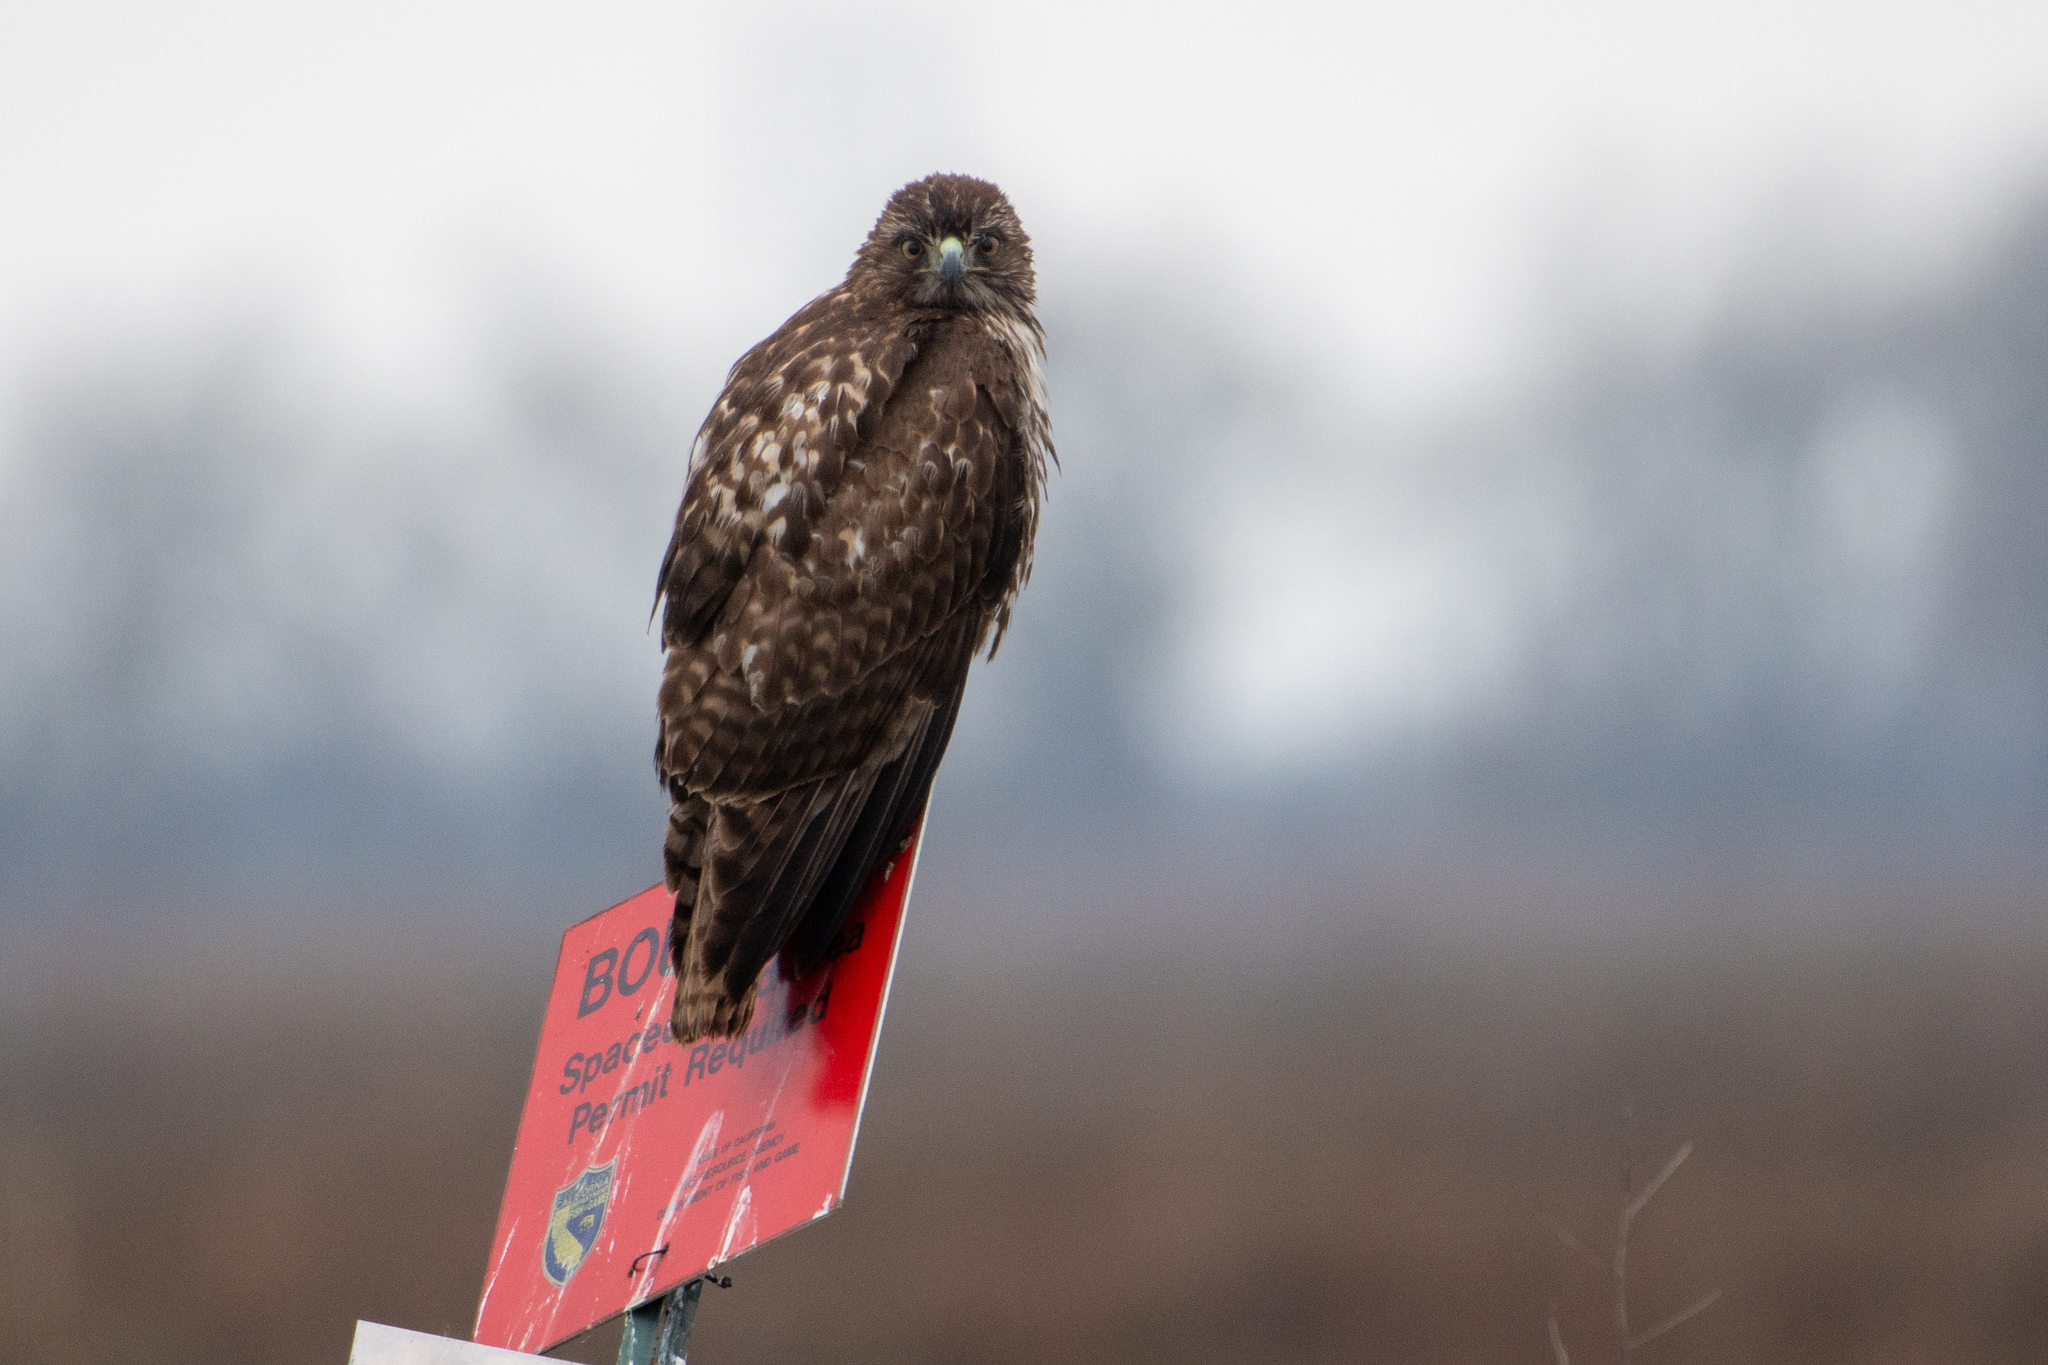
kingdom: Animalia
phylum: Chordata
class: Aves
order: Accipitriformes
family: Accipitridae
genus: Buteo
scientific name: Buteo jamaicensis
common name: Red-tailed hawk
